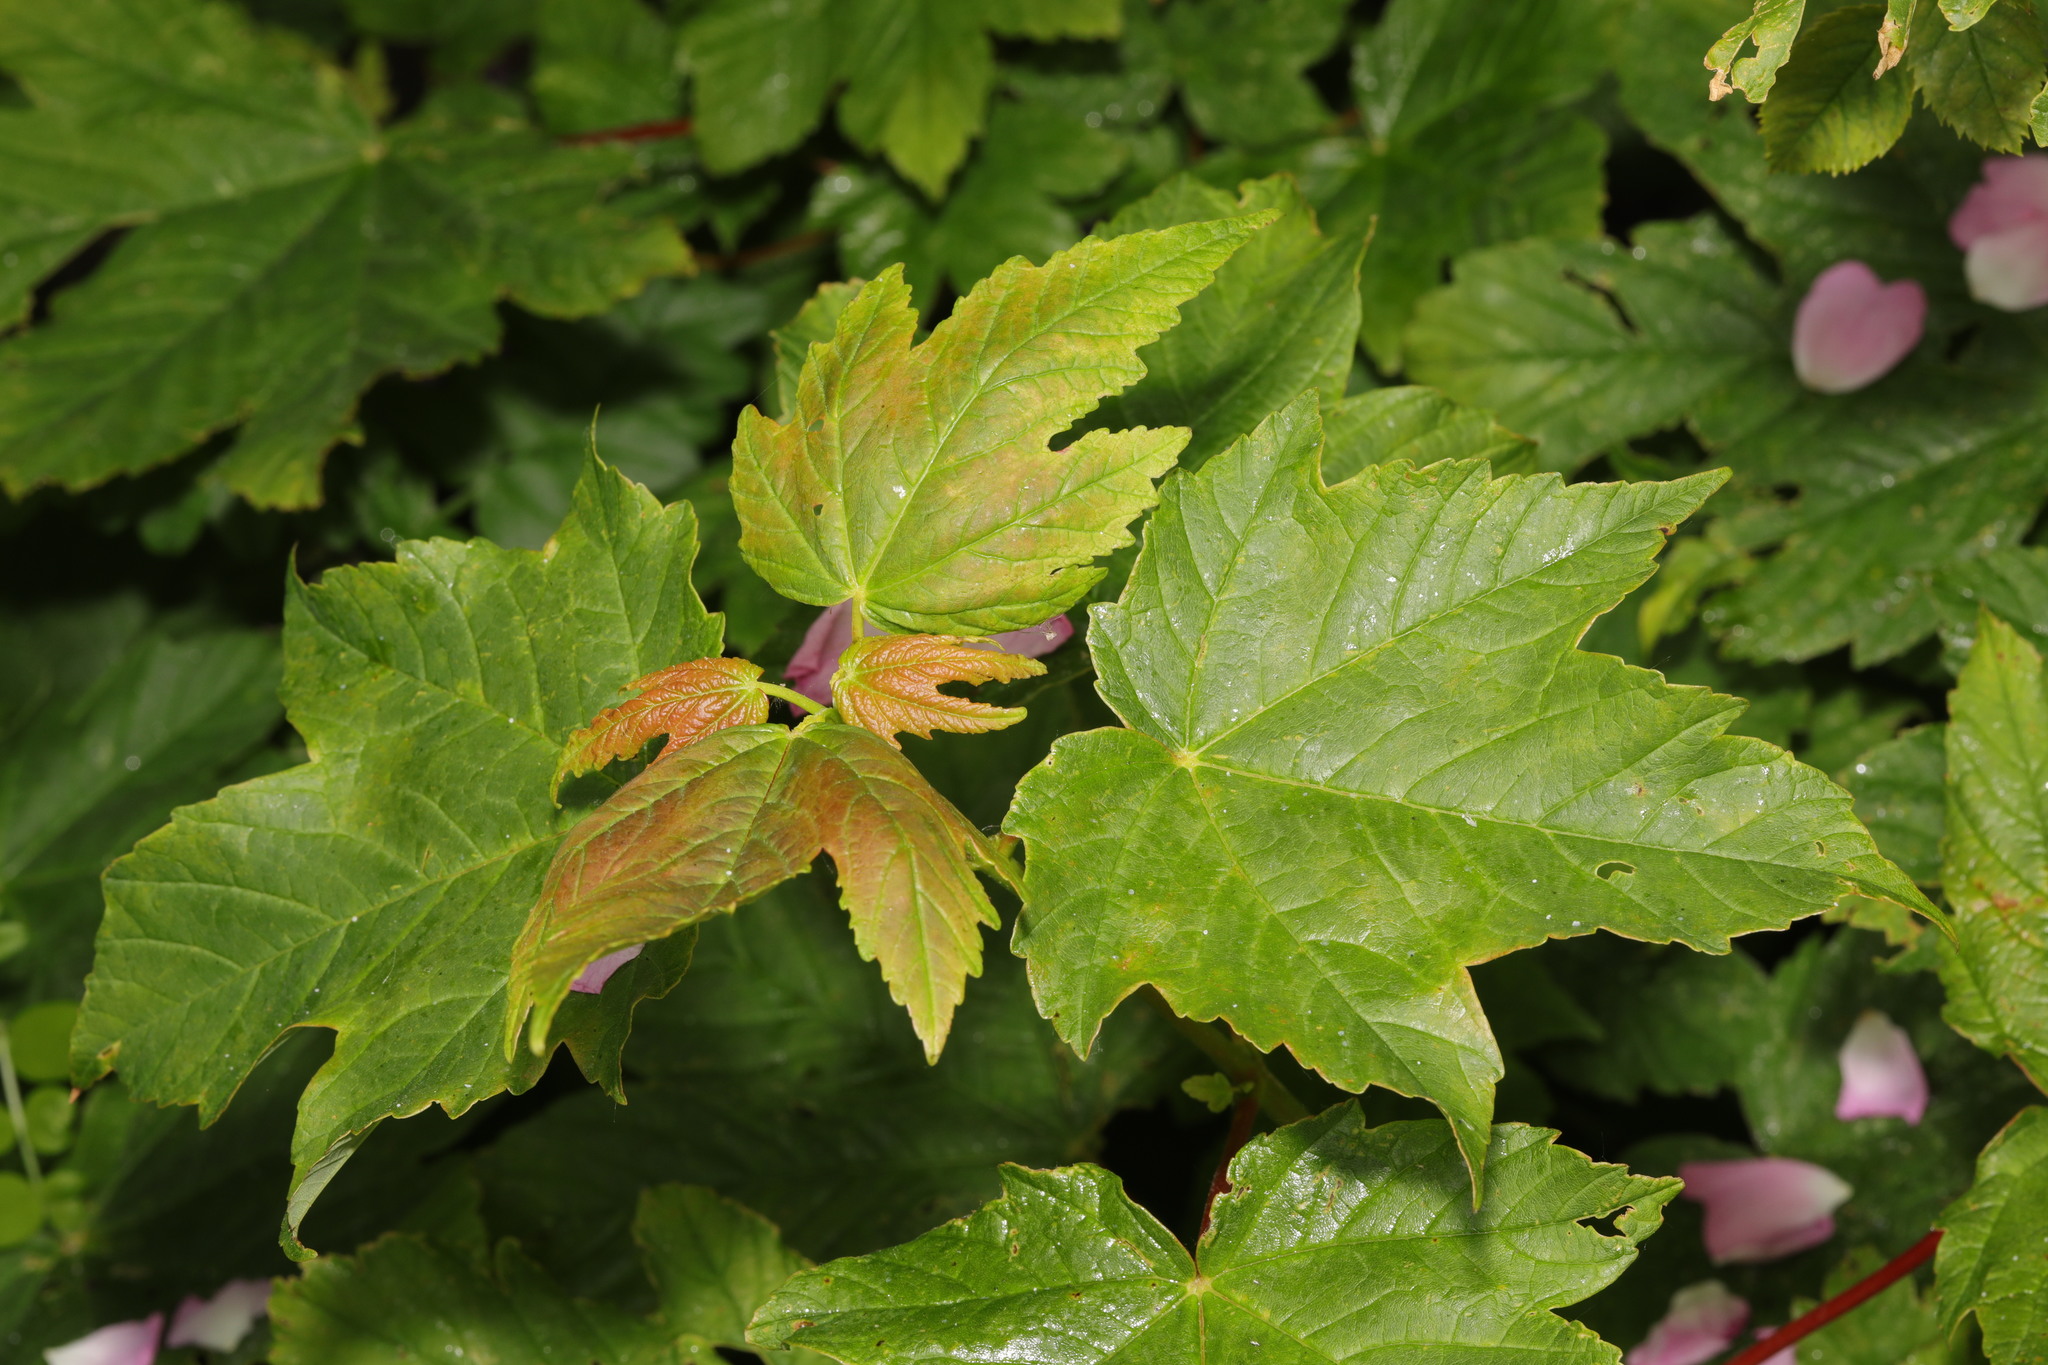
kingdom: Plantae
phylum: Tracheophyta
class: Magnoliopsida
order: Sapindales
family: Sapindaceae
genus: Acer
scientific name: Acer pseudoplatanus
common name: Sycamore
